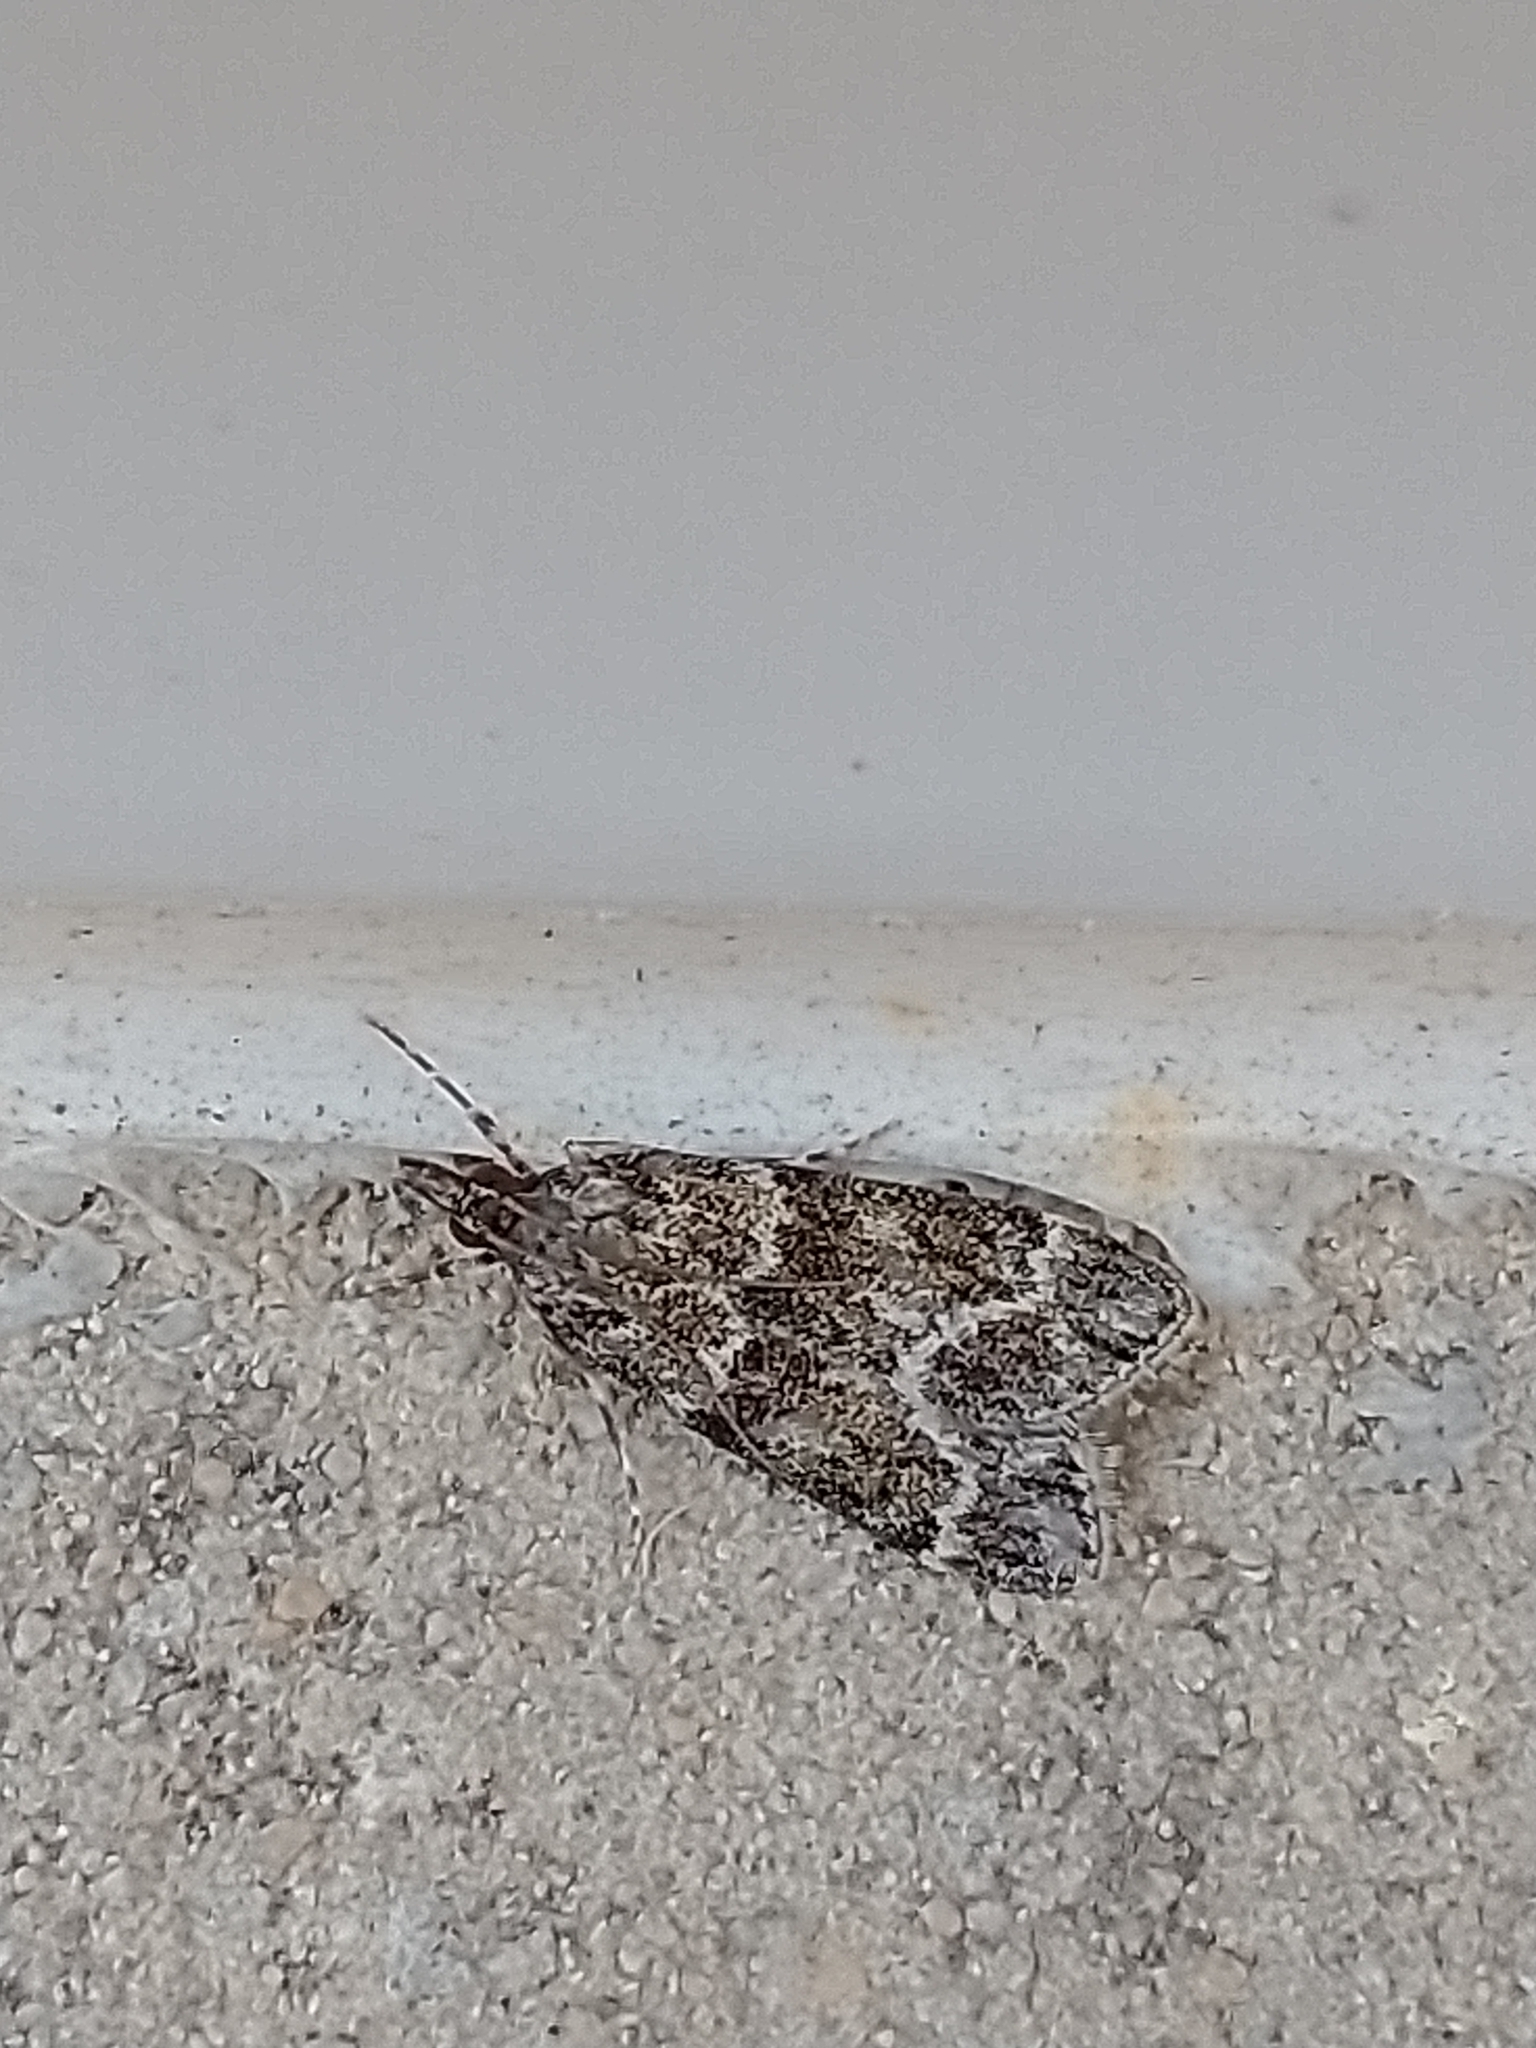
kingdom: Animalia
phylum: Arthropoda
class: Insecta
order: Lepidoptera
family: Crambidae
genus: Eudonia
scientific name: Eudonia mercurella
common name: Small grey
